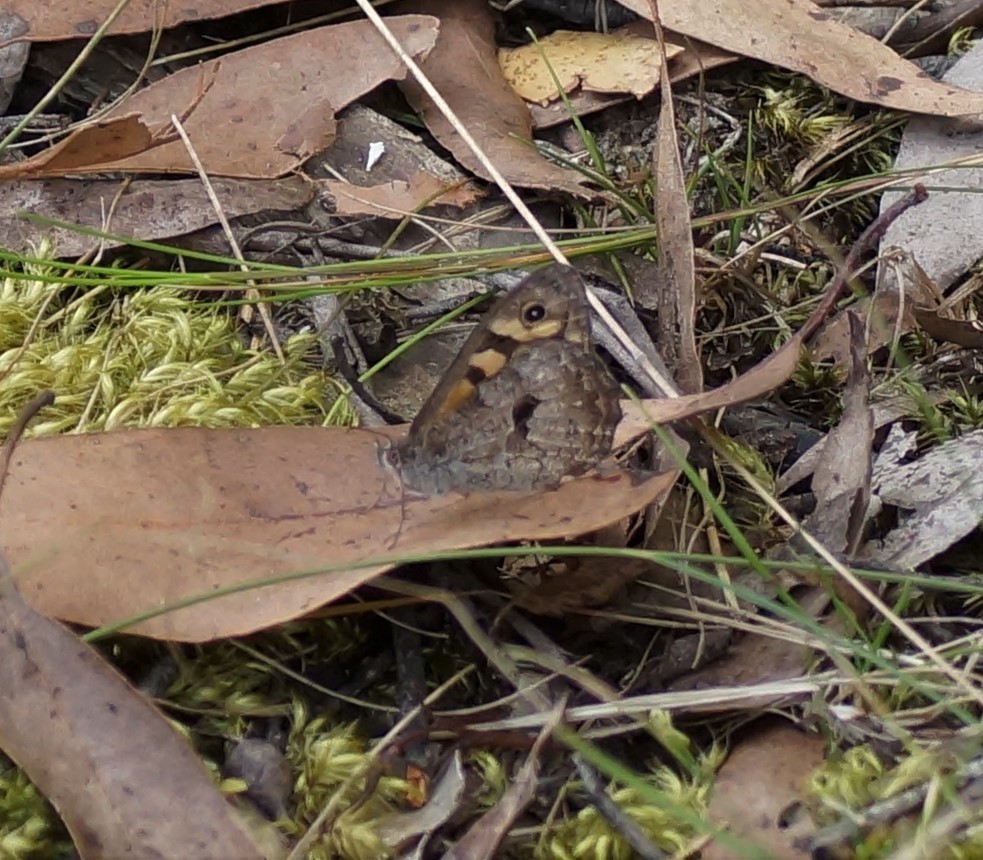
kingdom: Animalia
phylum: Arthropoda
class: Insecta
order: Lepidoptera
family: Nymphalidae
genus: Geitoneura
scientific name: Geitoneura klugii
